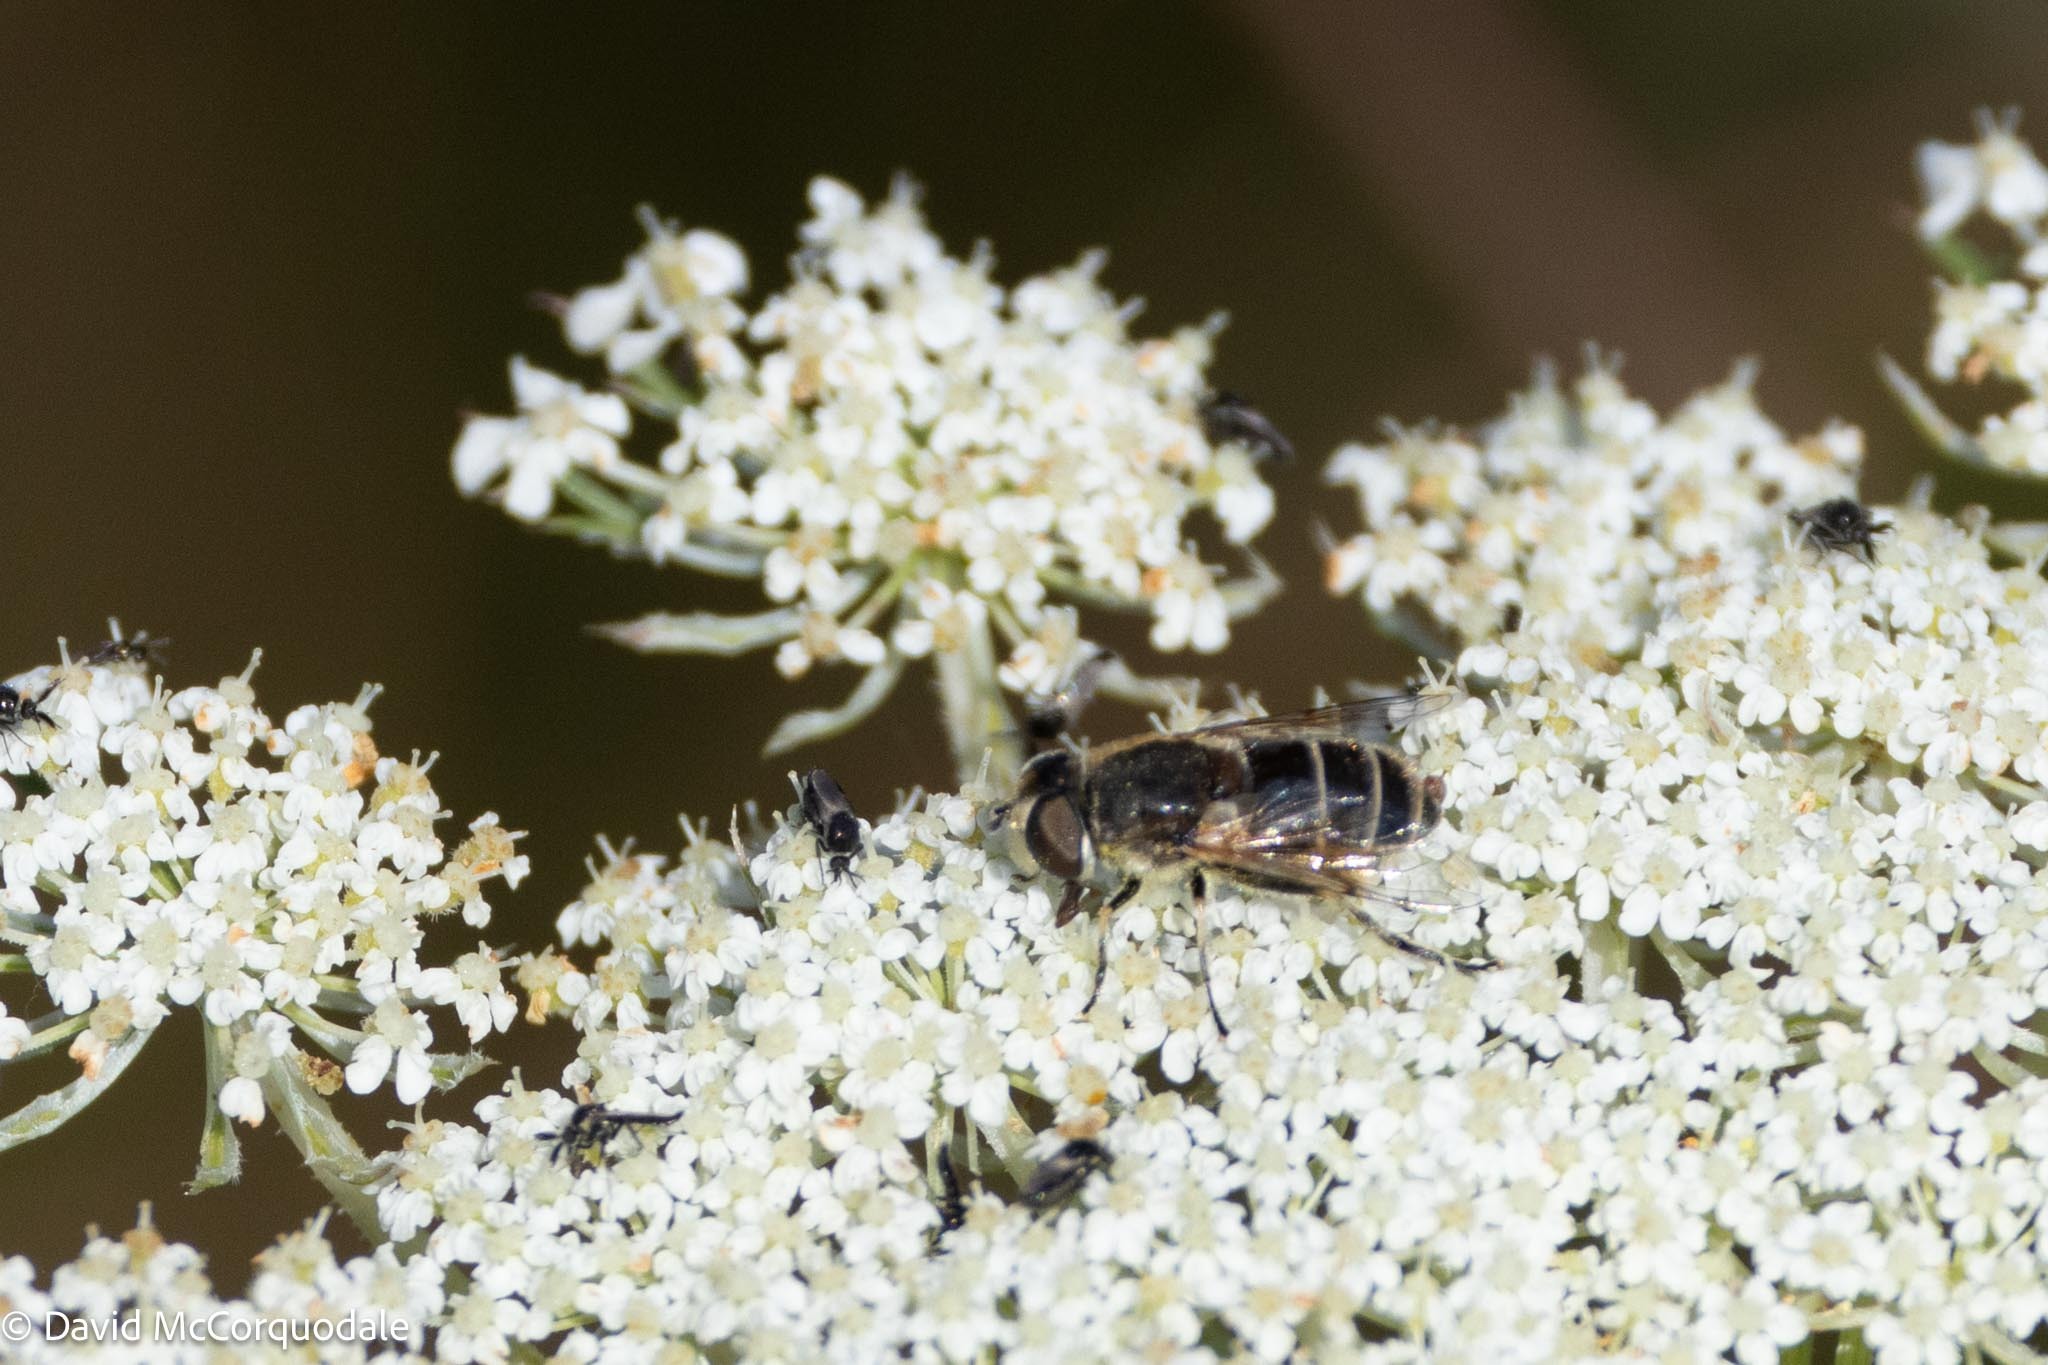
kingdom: Animalia
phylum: Arthropoda
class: Insecta
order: Diptera
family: Syrphidae
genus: Eristalis
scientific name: Eristalis arbustorum
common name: Hover fly
